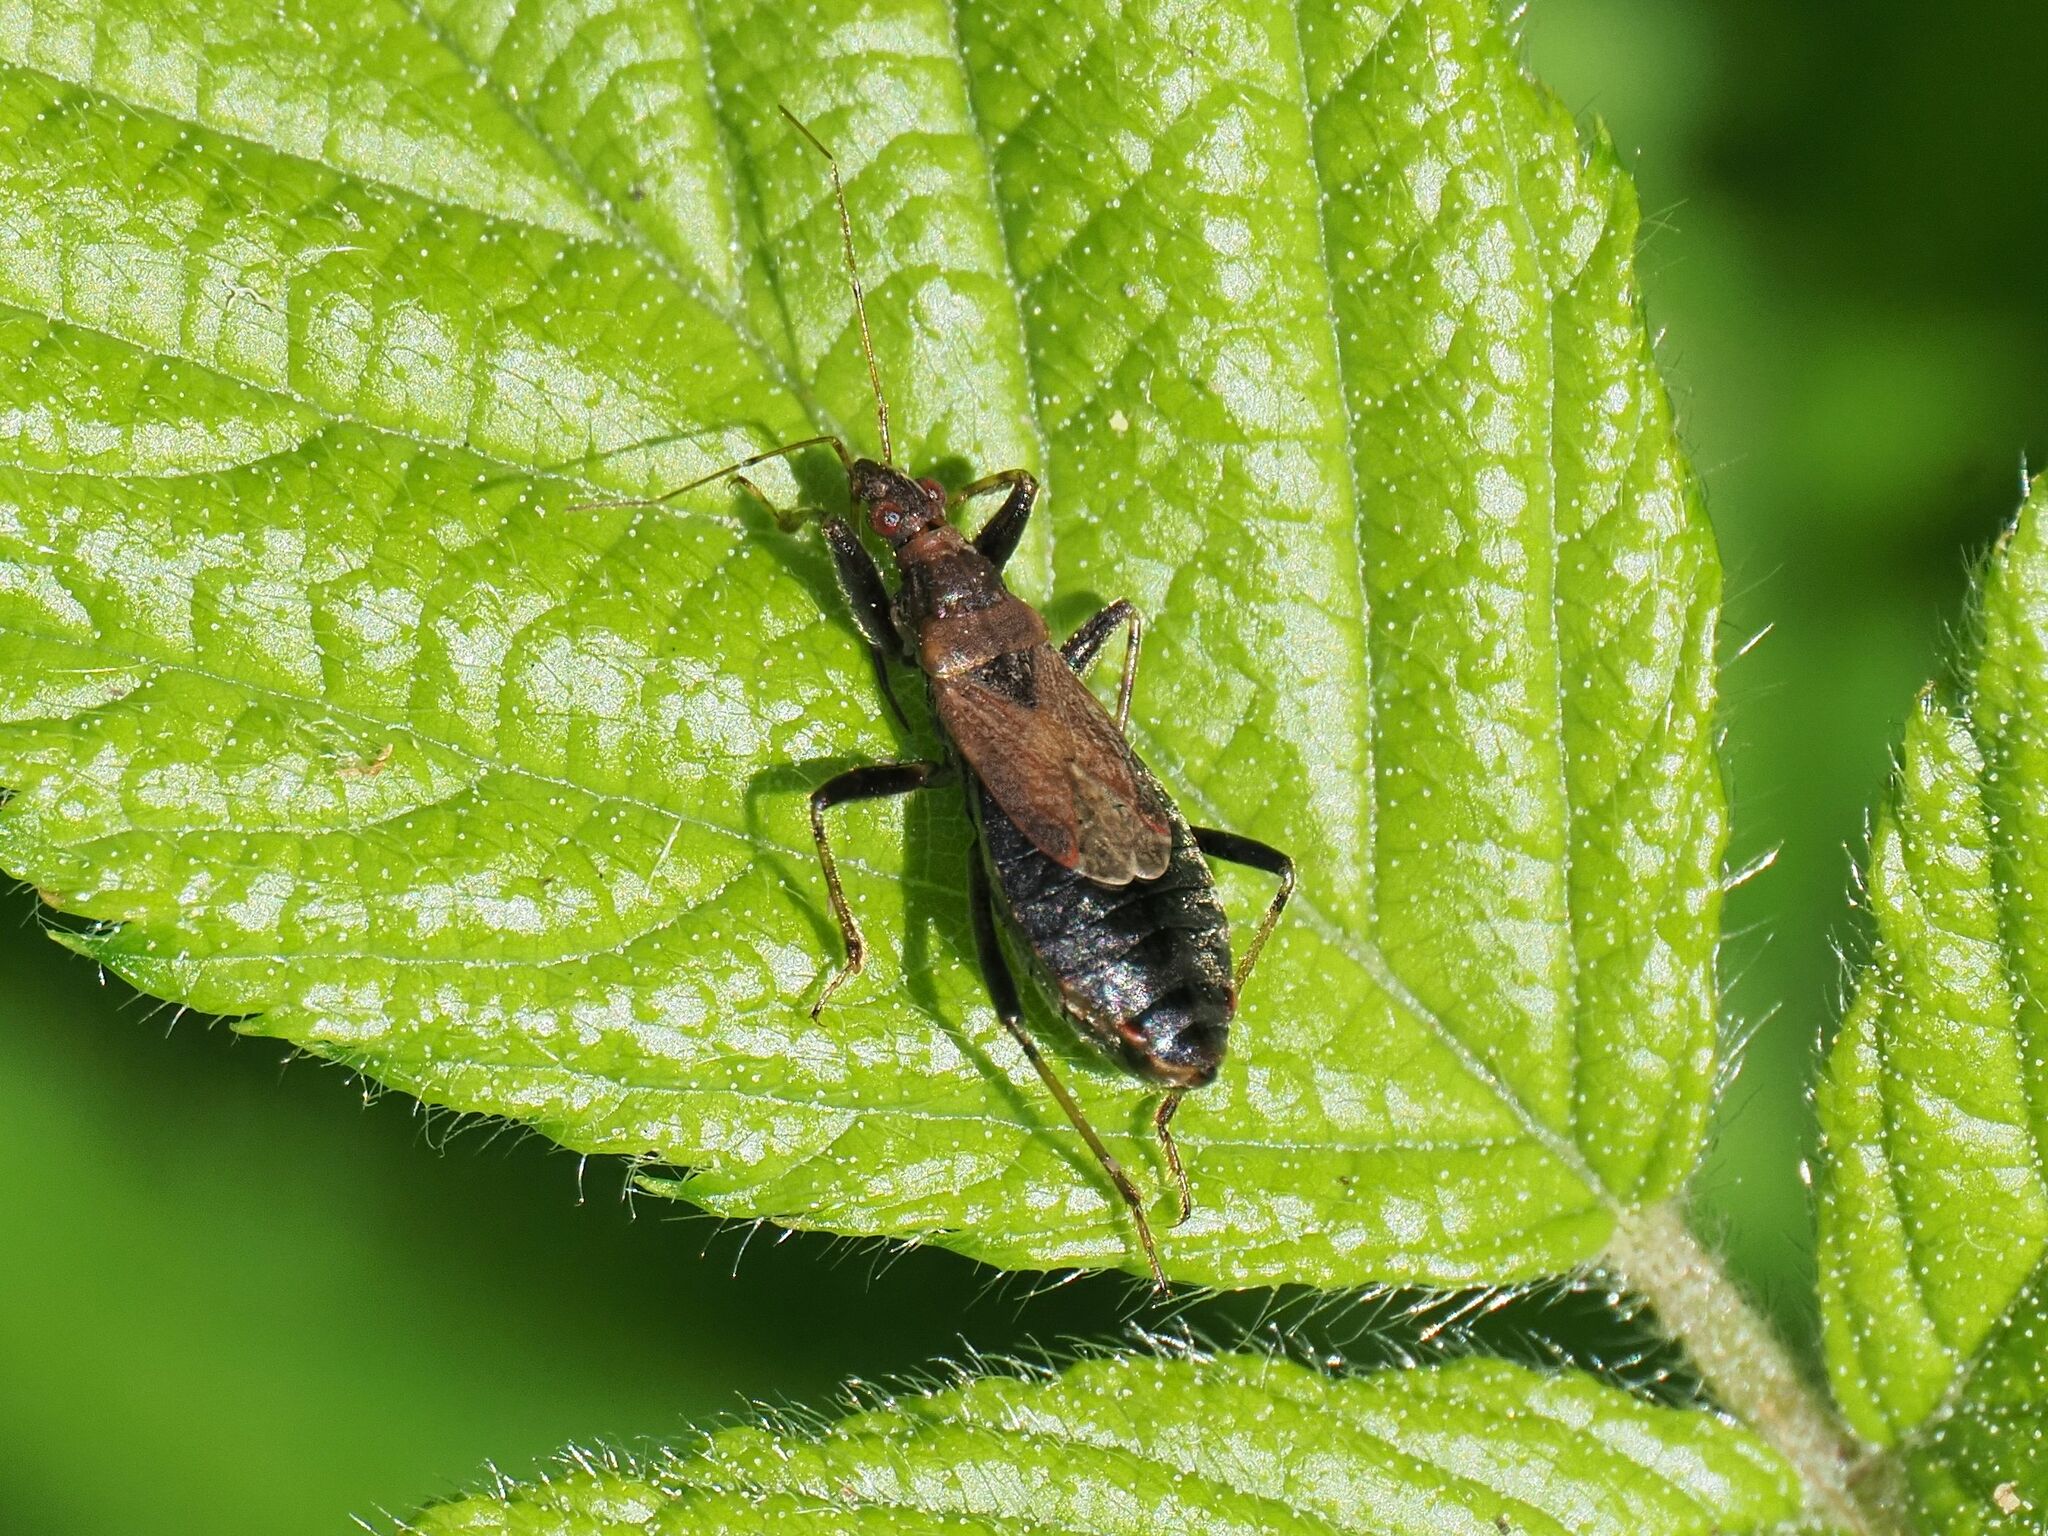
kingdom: Animalia
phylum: Arthropoda
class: Insecta
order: Hemiptera
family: Nabidae
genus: Himacerus
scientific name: Himacerus mirmicoides
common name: Ant damsel bug
